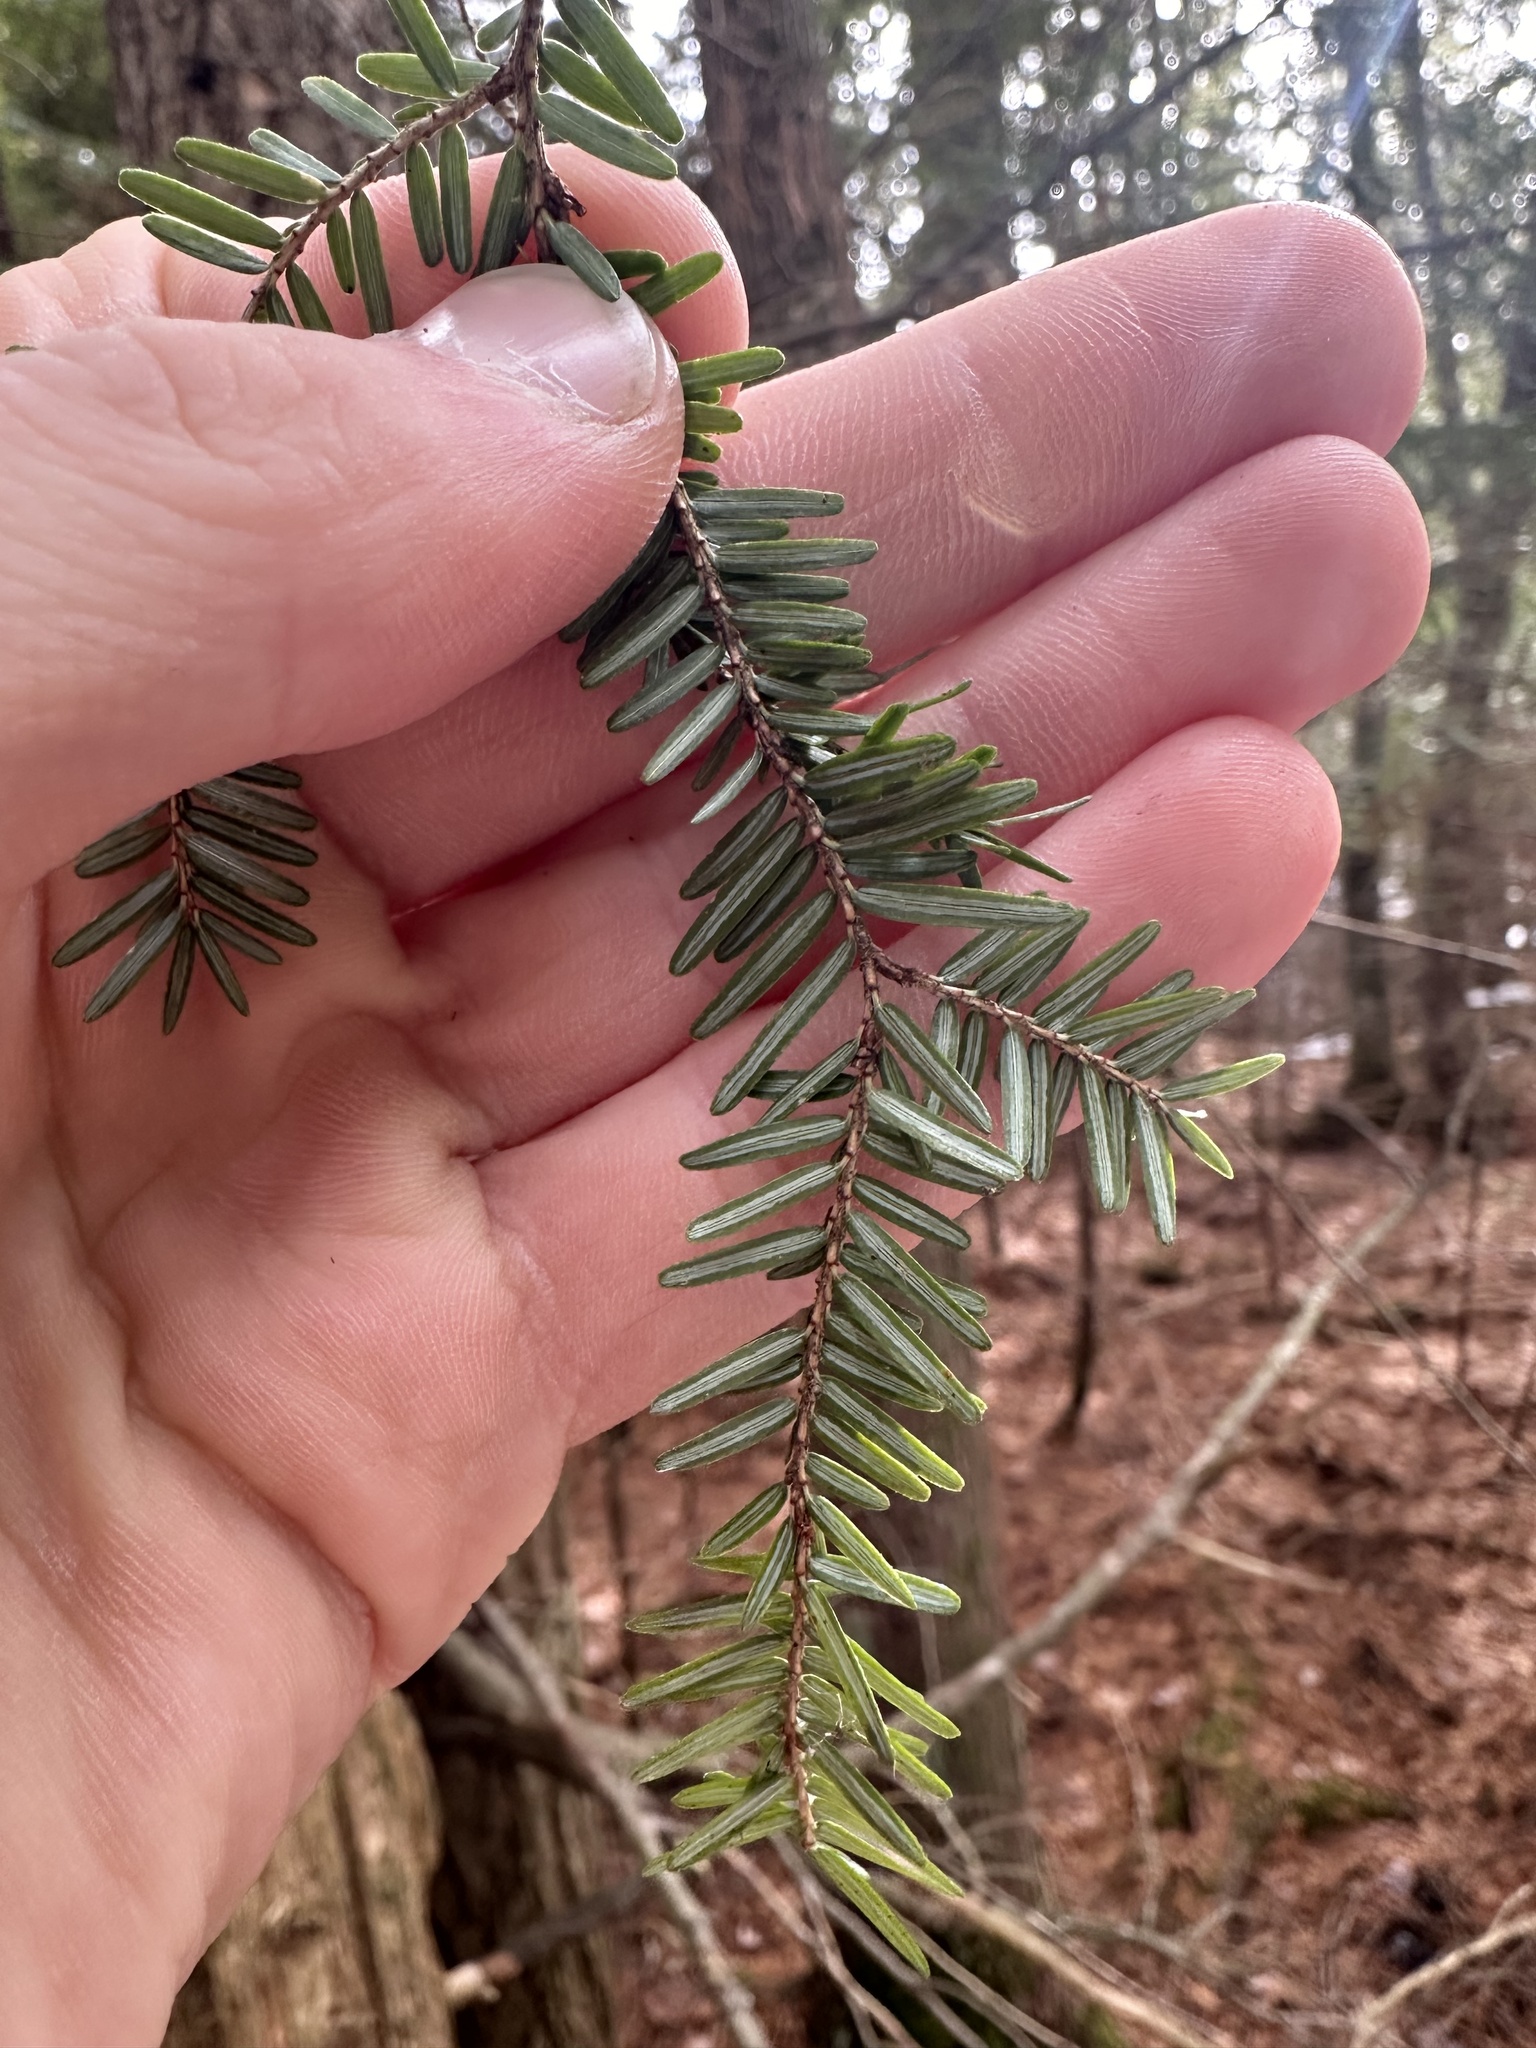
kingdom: Plantae
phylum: Tracheophyta
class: Pinopsida
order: Pinales
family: Pinaceae
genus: Tsuga
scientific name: Tsuga canadensis
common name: Eastern hemlock
